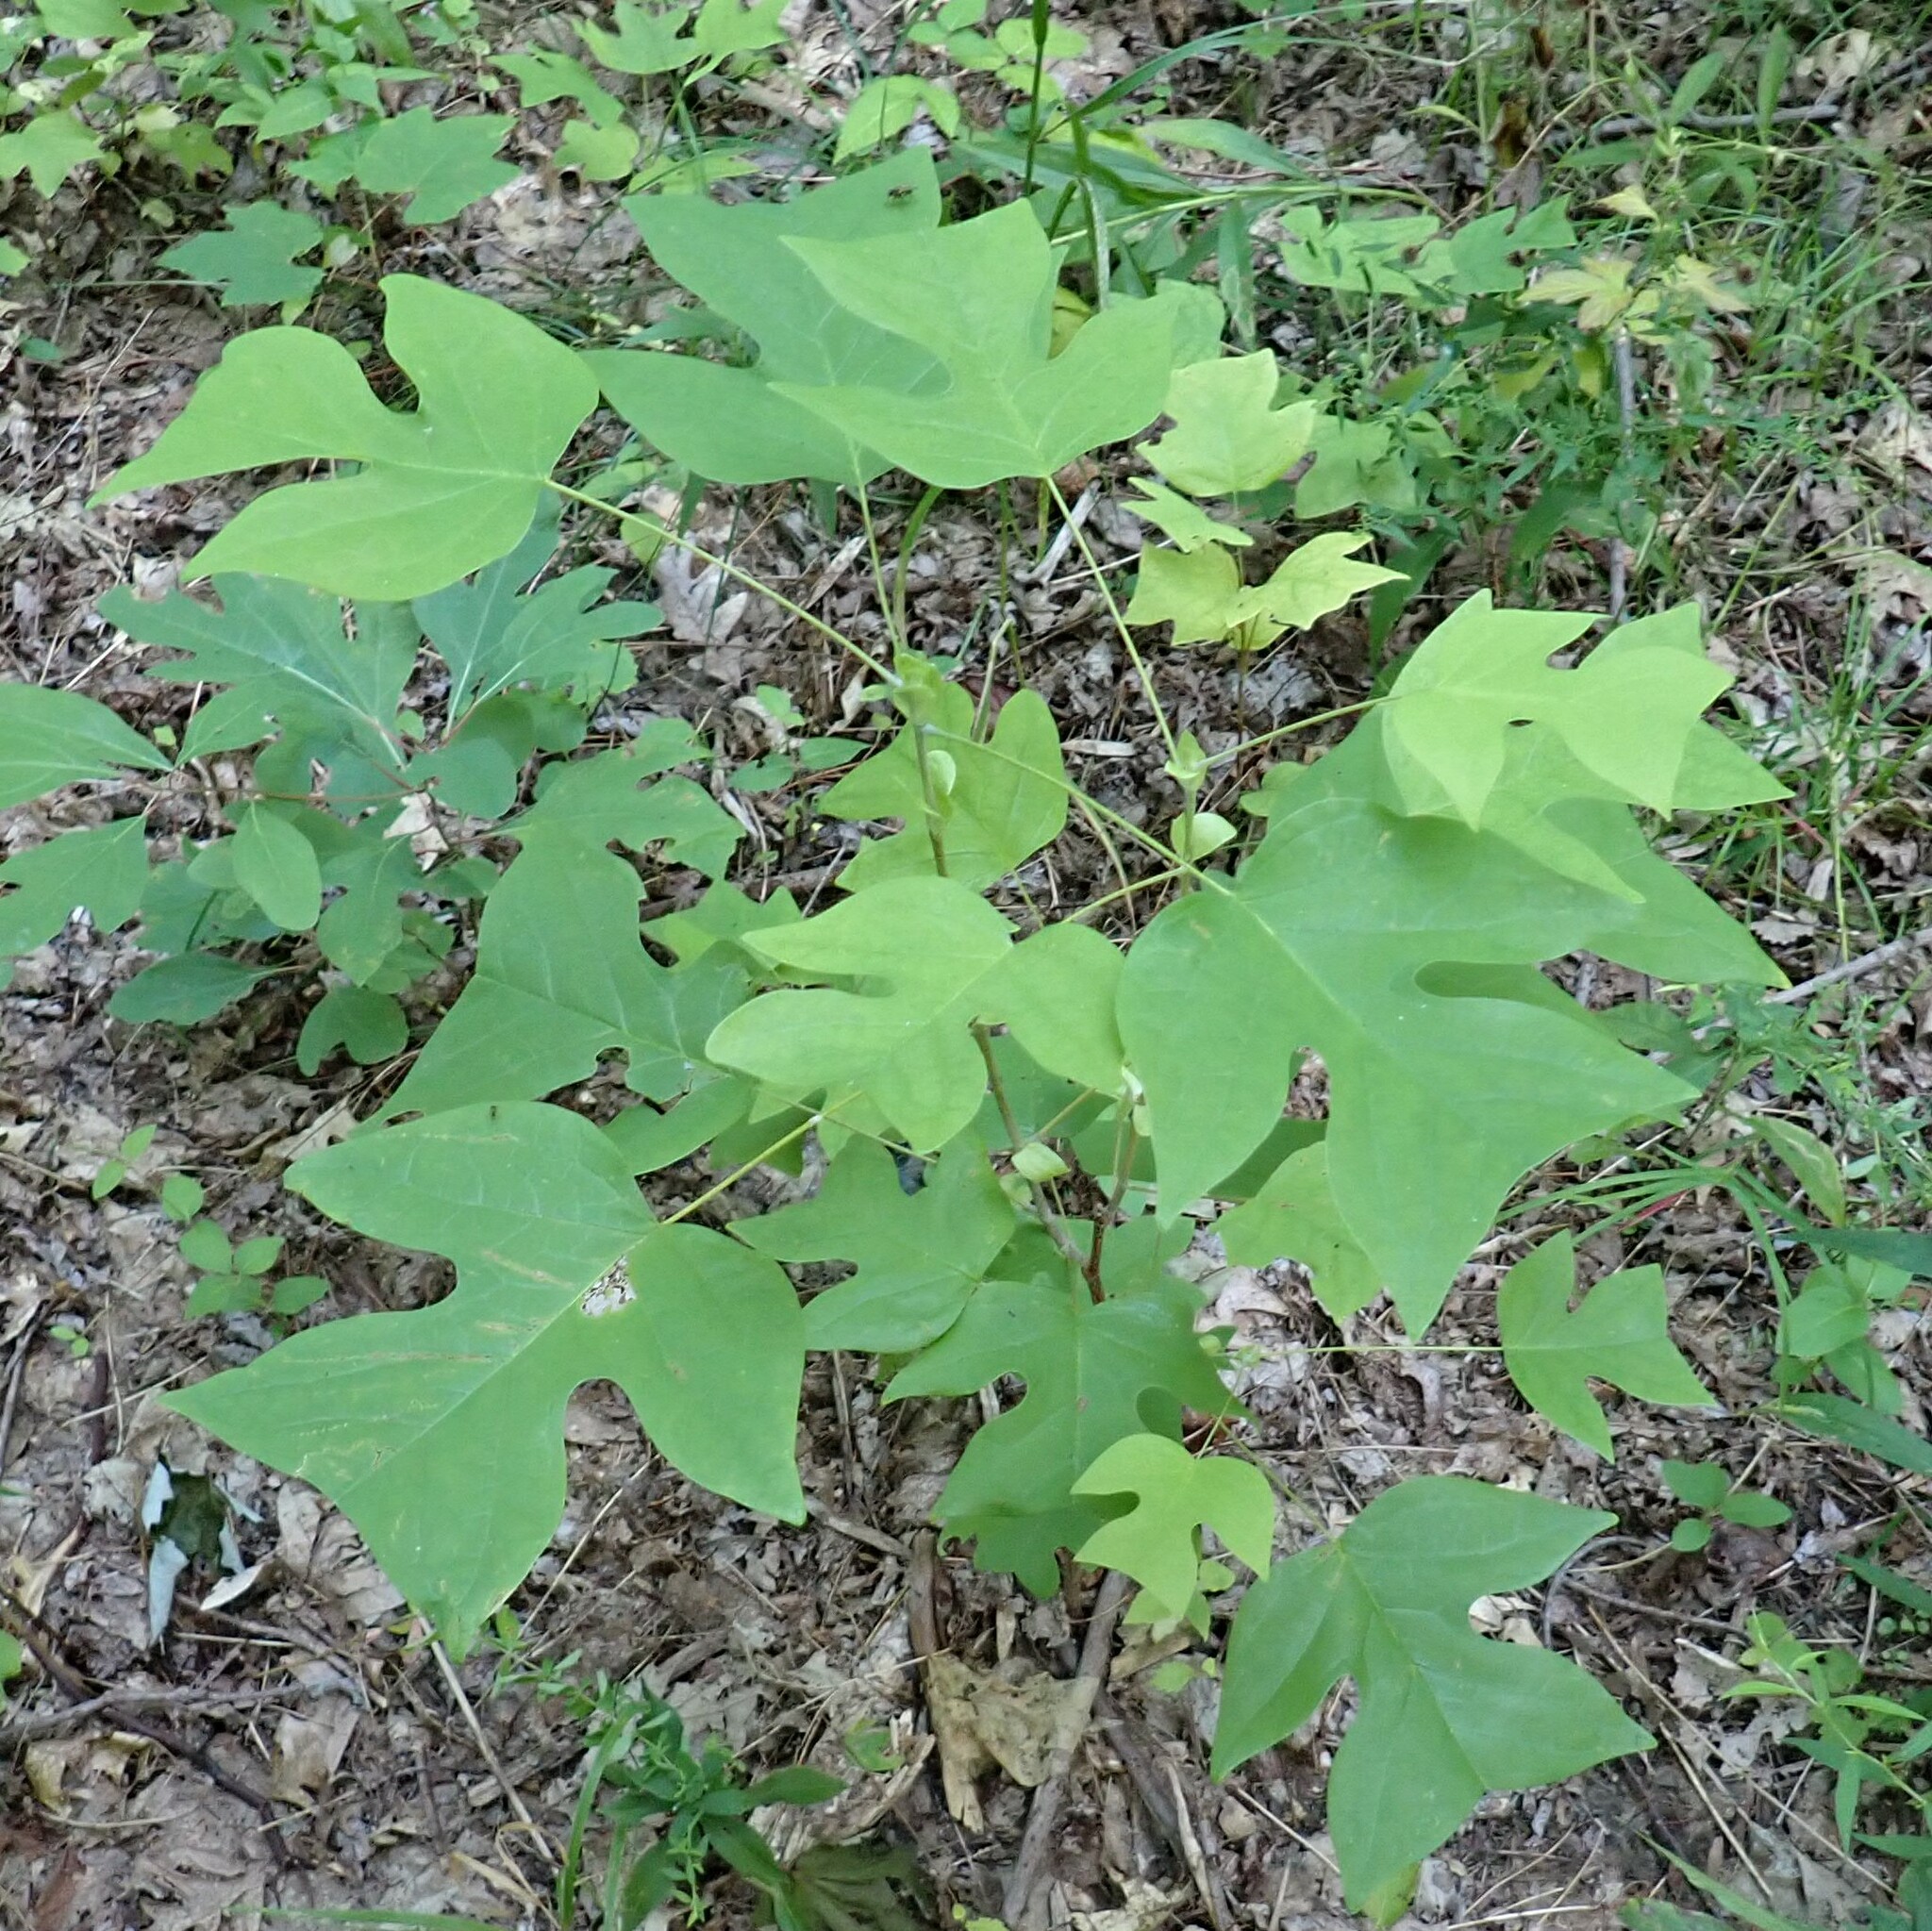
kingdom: Plantae
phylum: Tracheophyta
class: Magnoliopsida
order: Magnoliales
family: Magnoliaceae
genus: Liriodendron
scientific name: Liriodendron tulipifera
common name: Tulip tree
